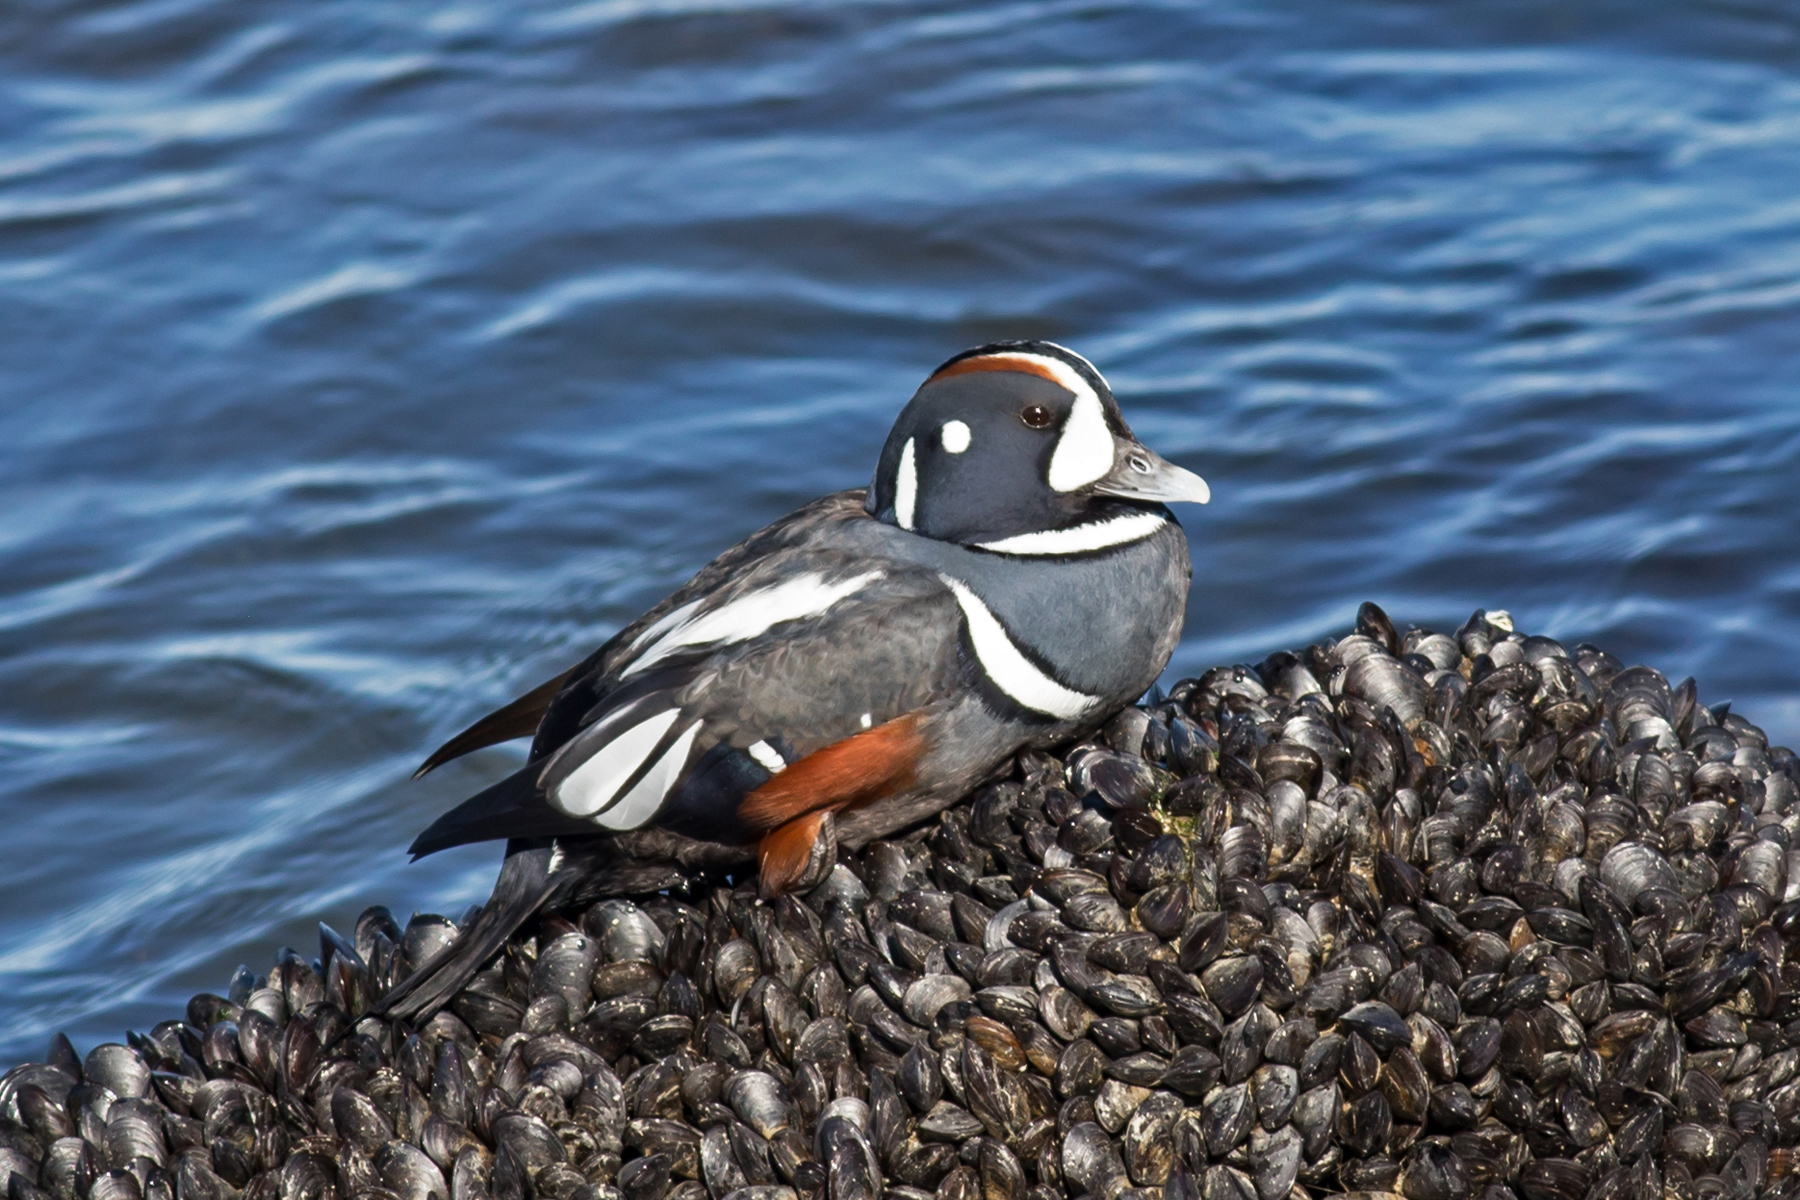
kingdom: Animalia
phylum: Chordata
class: Aves
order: Anseriformes
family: Anatidae
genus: Histrionicus
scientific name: Histrionicus histrionicus
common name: Harlequin duck
